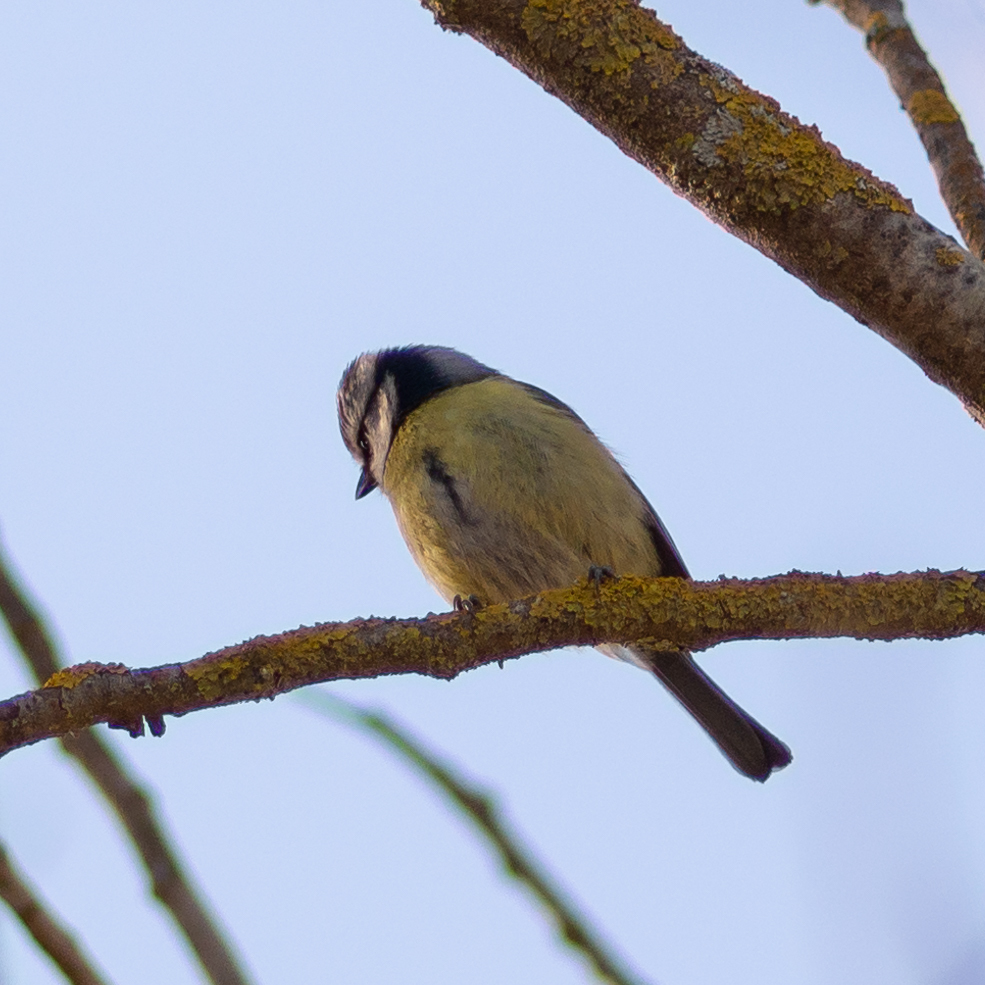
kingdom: Animalia
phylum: Chordata
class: Aves
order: Passeriformes
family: Paridae
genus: Cyanistes
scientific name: Cyanistes caeruleus
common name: Eurasian blue tit
